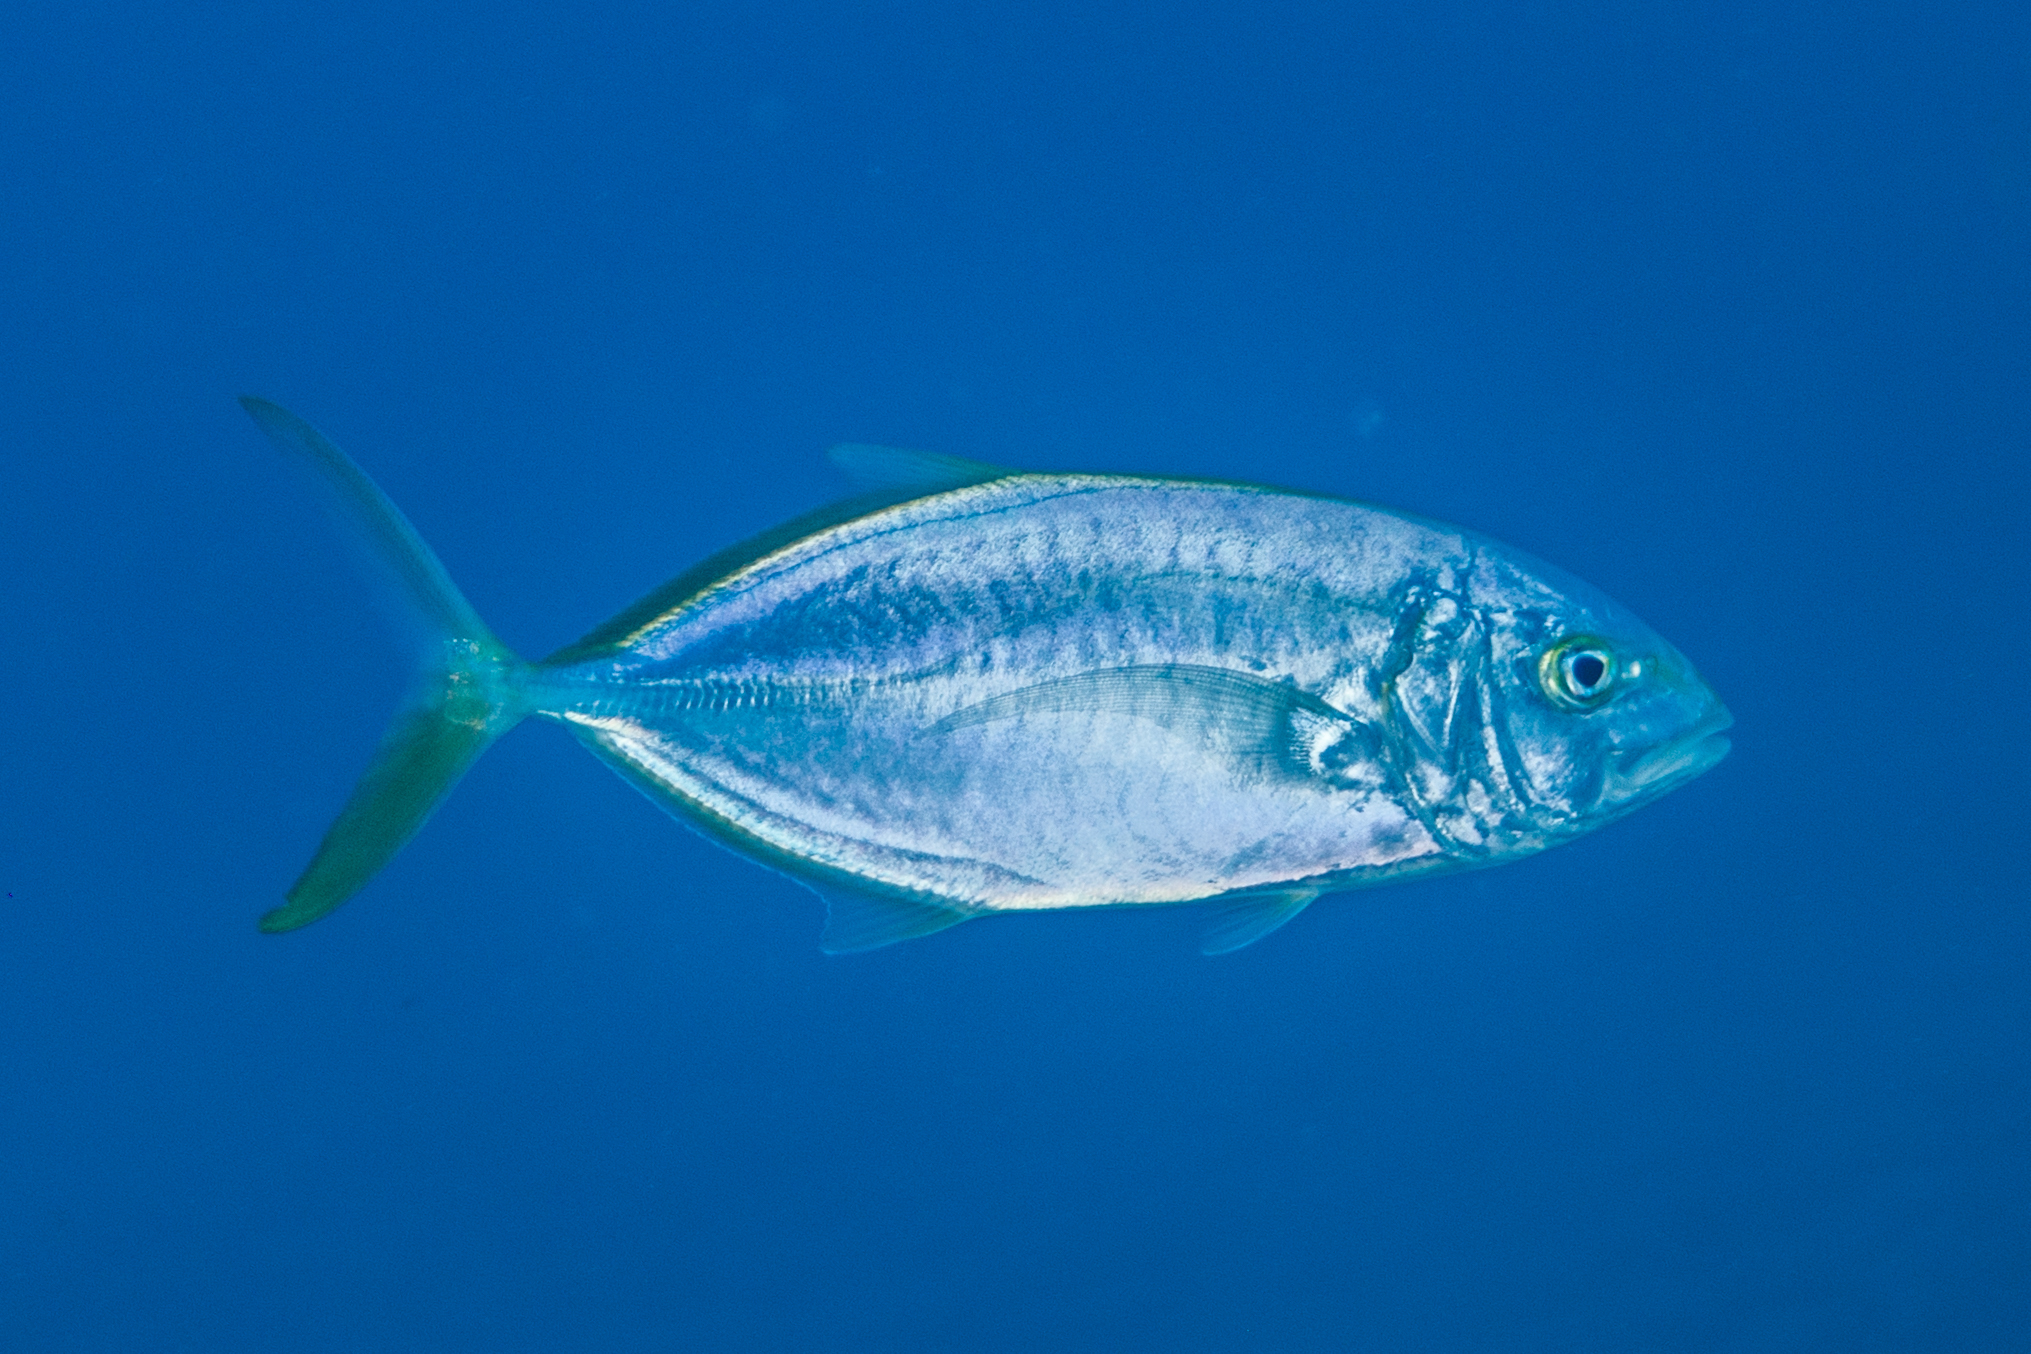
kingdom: Animalia
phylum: Chordata
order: Perciformes
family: Carangidae
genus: Carangoides
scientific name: Carangoides bartholomaei
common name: Yellow jack
